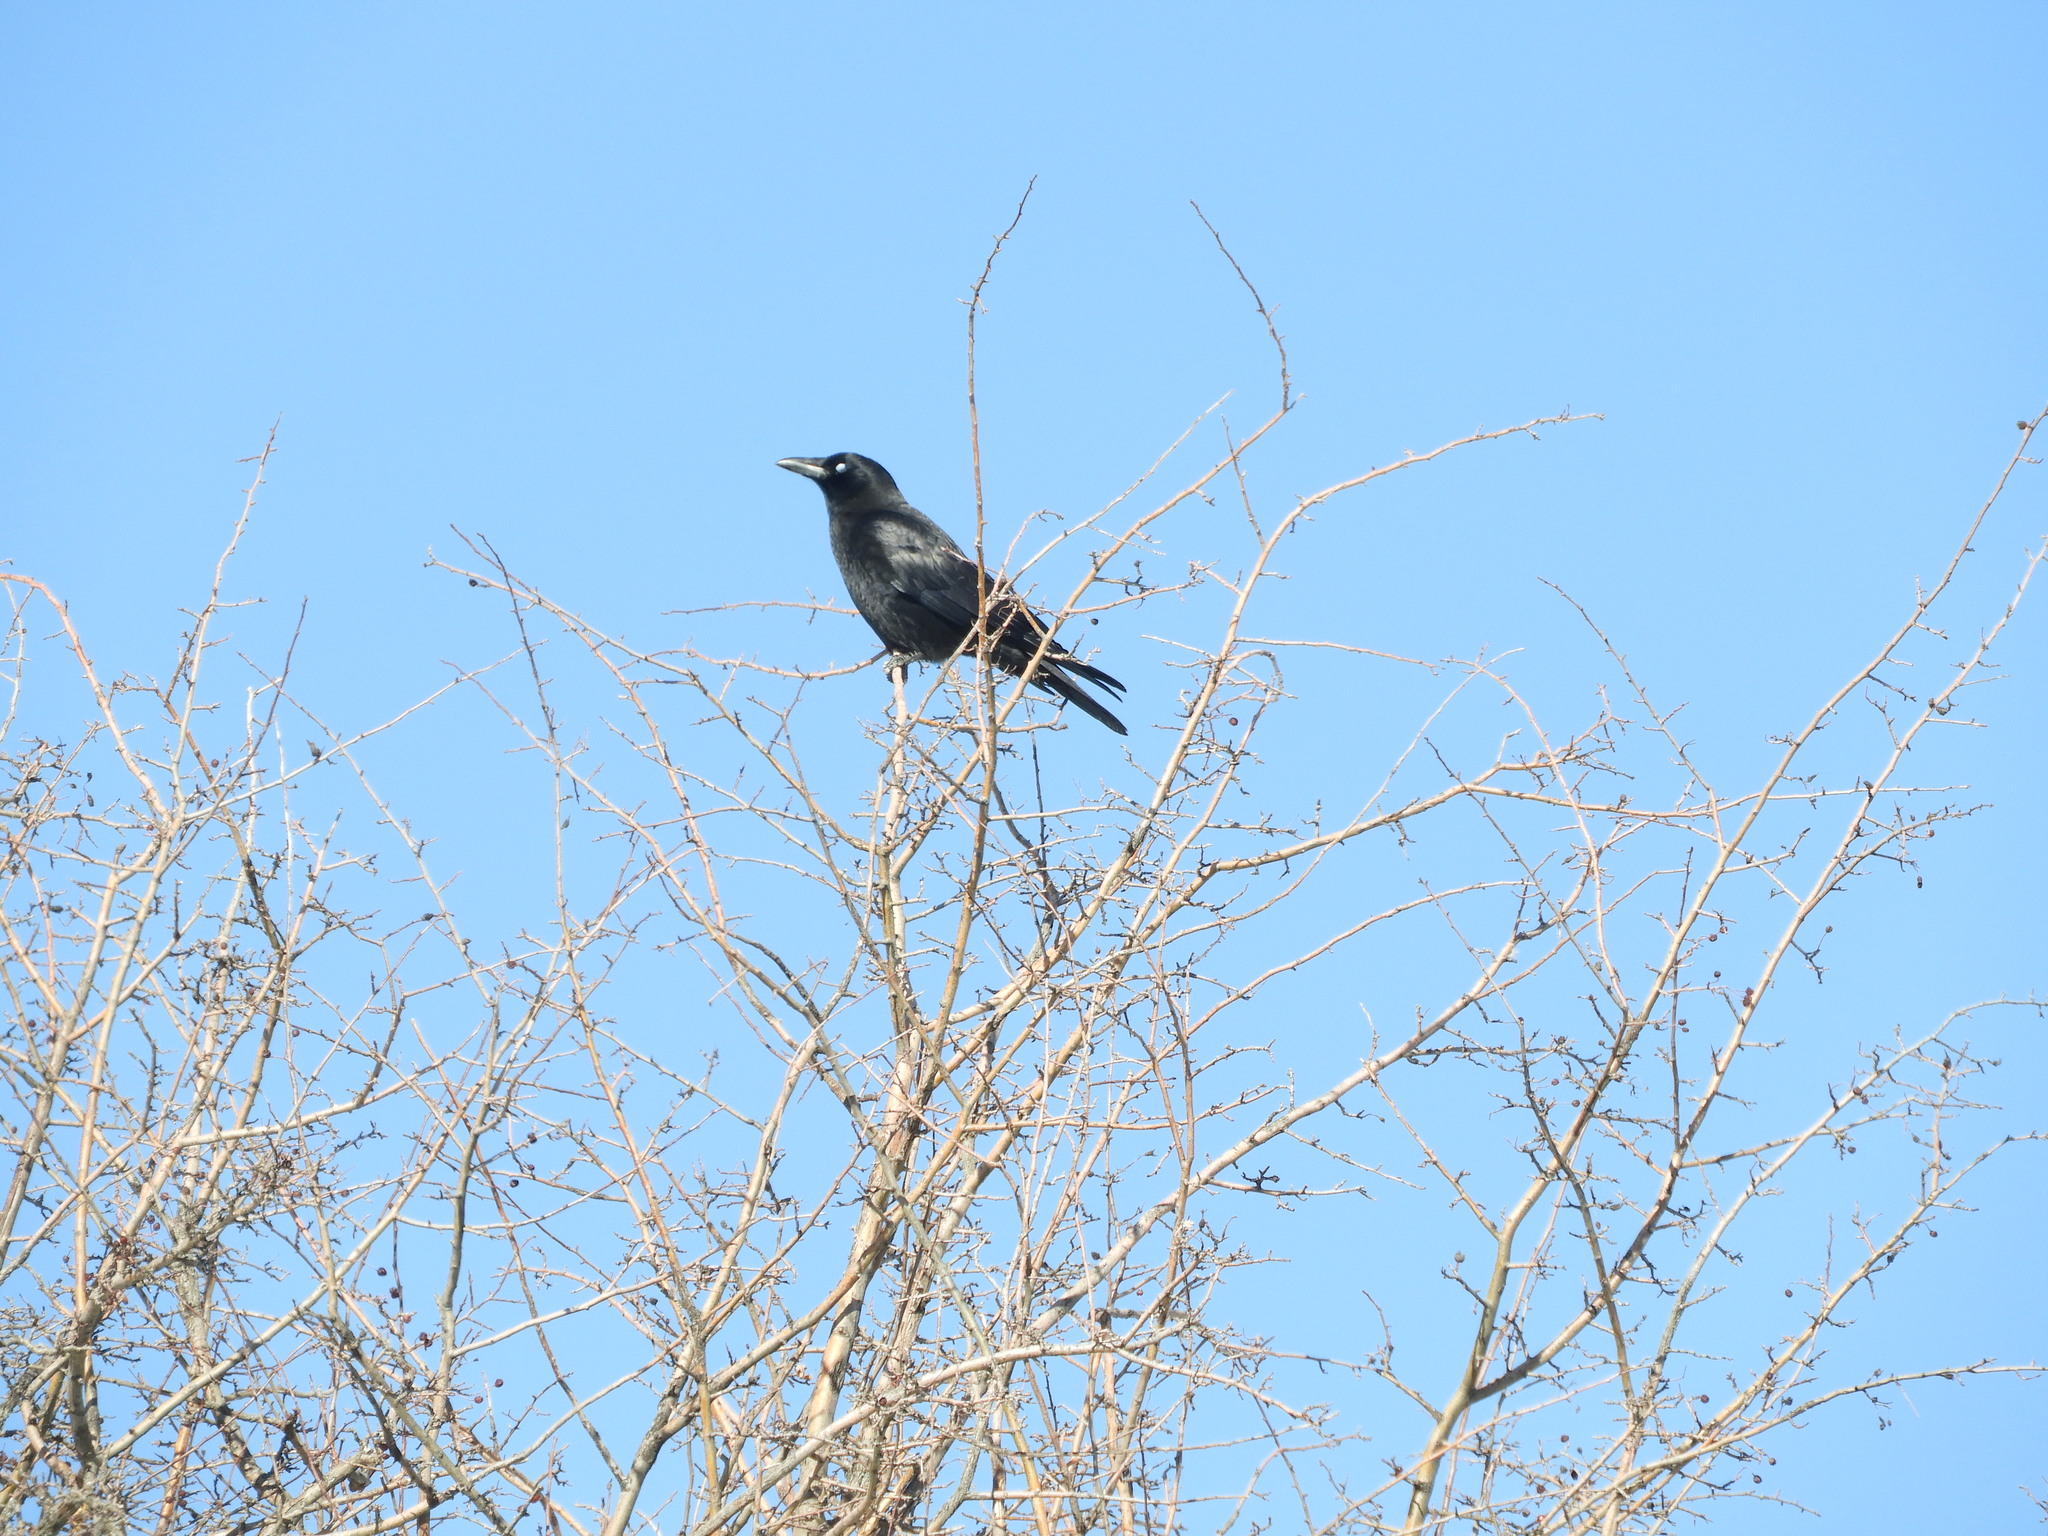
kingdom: Animalia
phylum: Chordata
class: Aves
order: Passeriformes
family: Corvidae
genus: Corvus
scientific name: Corvus corone
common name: Carrion crow
